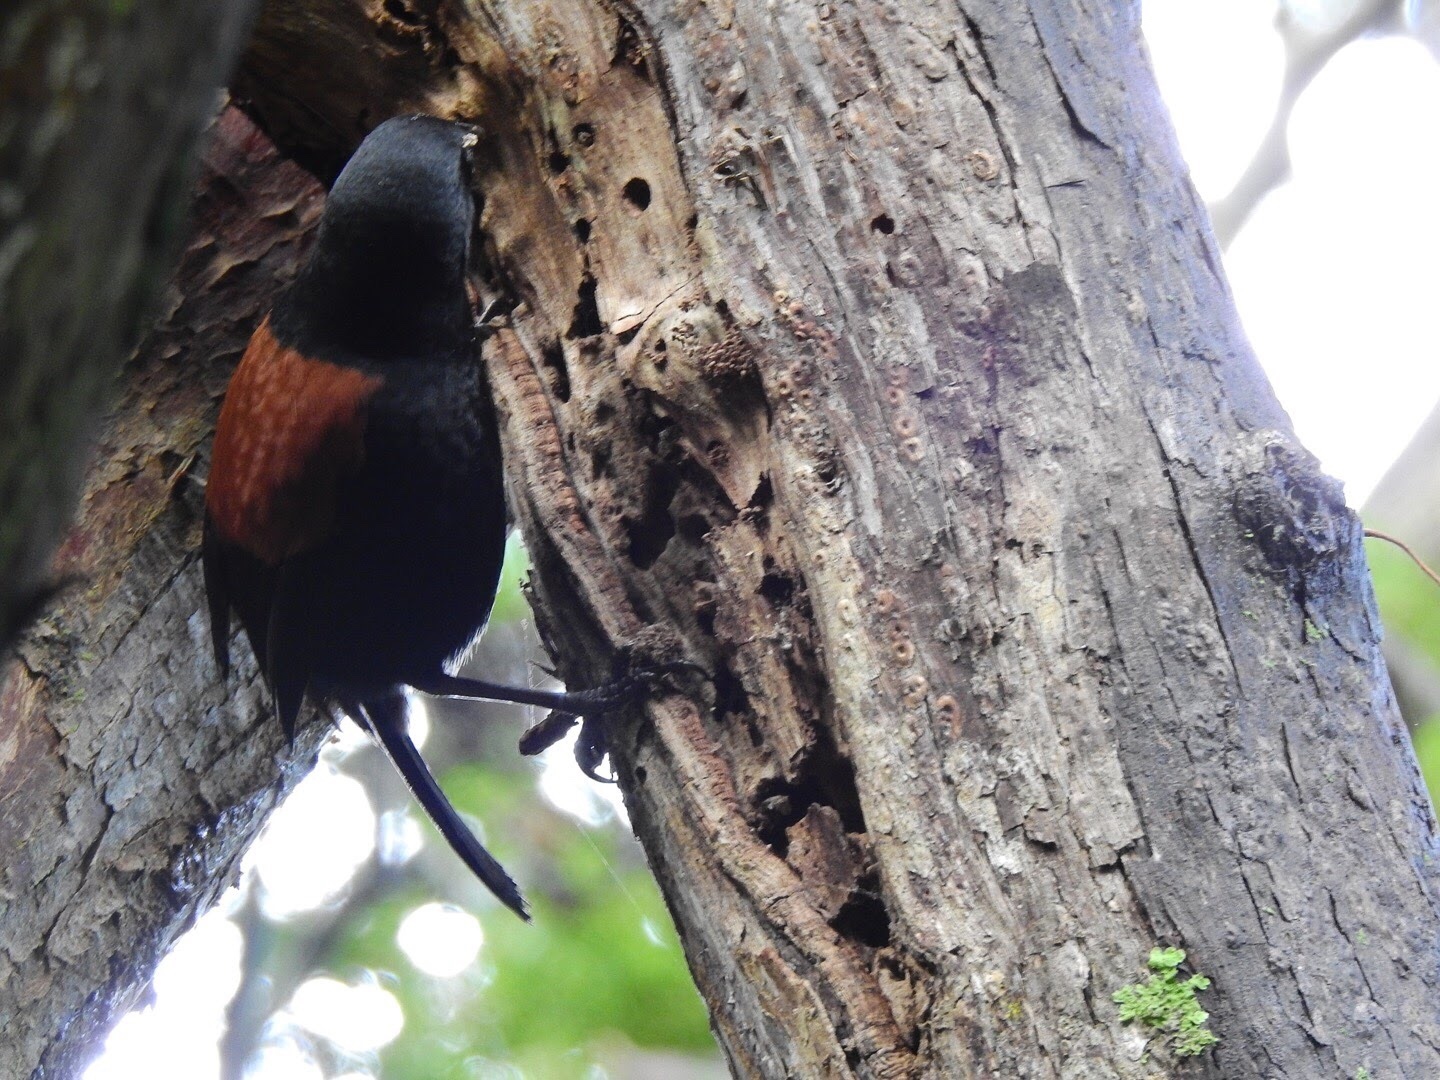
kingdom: Animalia
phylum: Chordata
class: Aves
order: Passeriformes
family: Callaeatidae
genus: Philesturnus
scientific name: Philesturnus carunculatus
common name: South island saddleback
